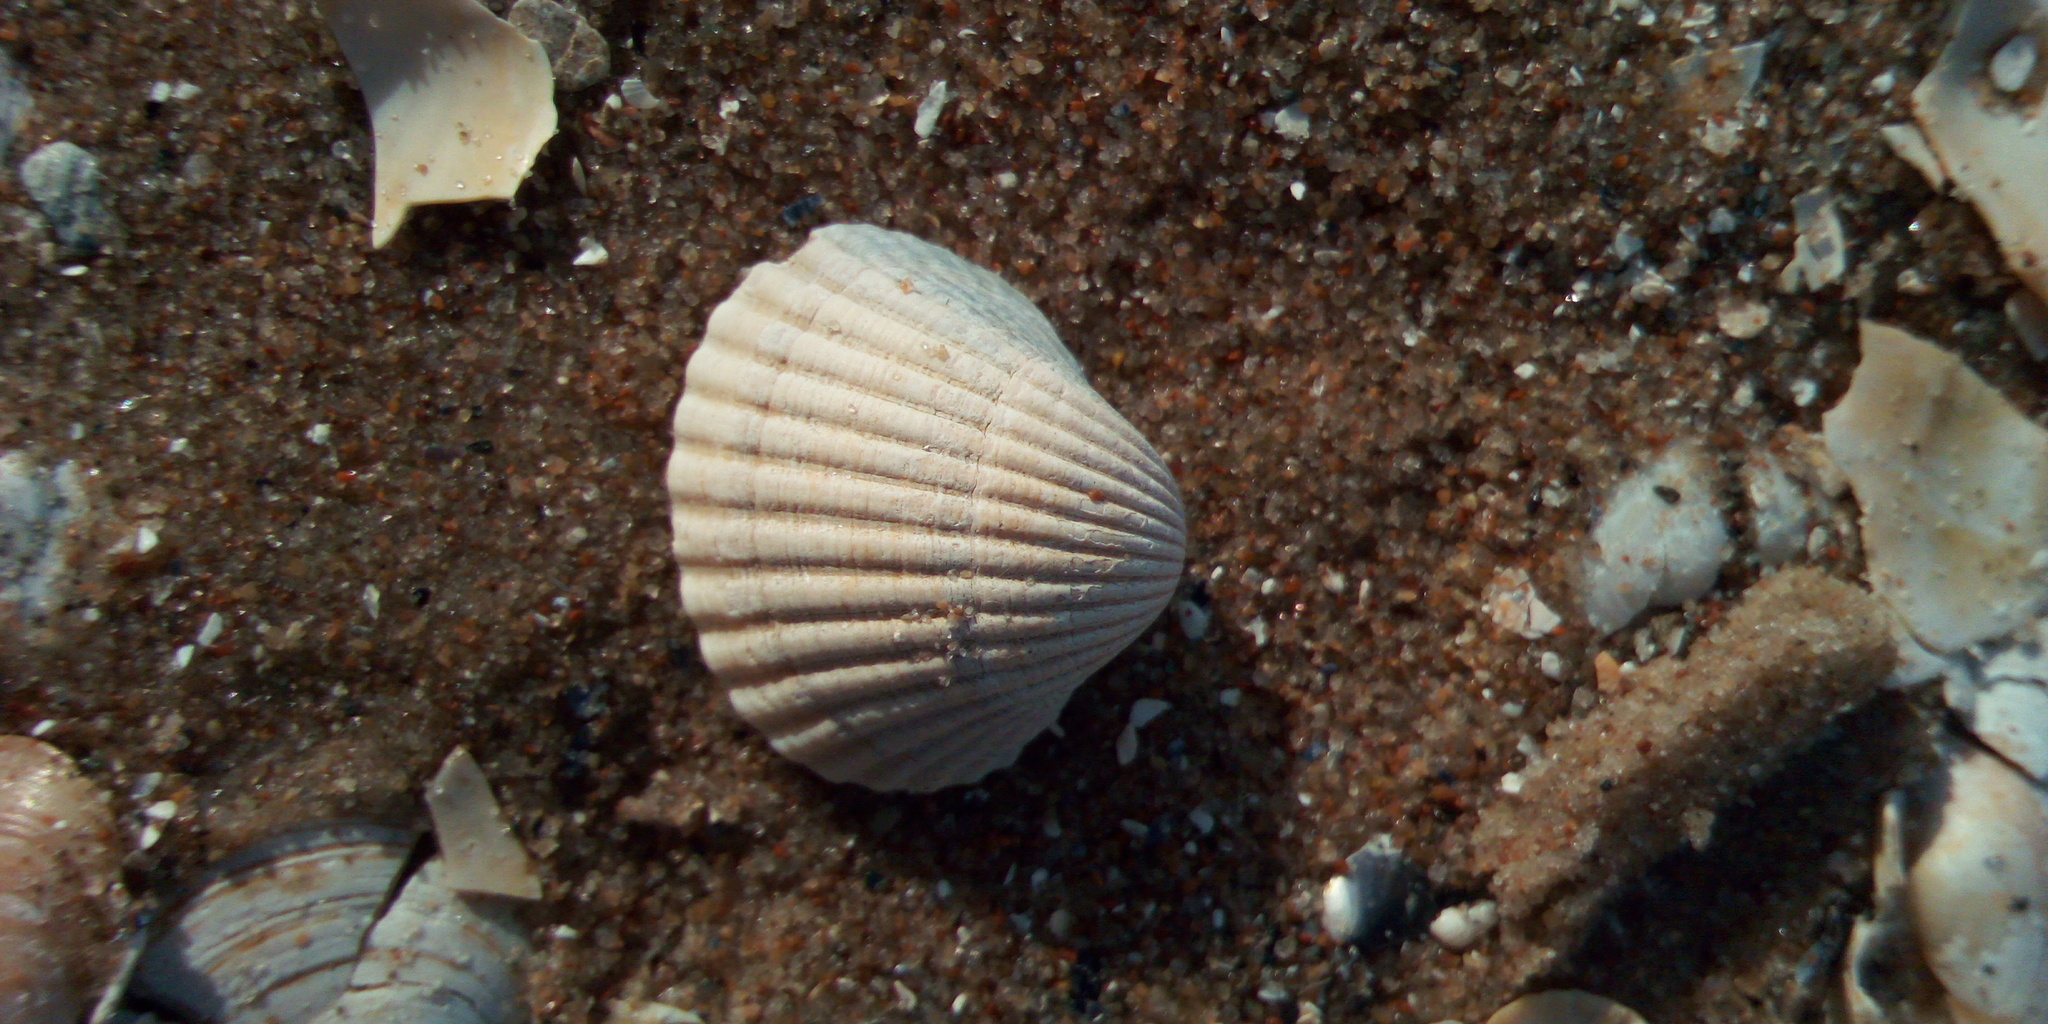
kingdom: Animalia
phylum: Mollusca
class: Bivalvia
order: Cardiida
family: Cardiidae
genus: Cerastoderma
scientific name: Cerastoderma glaucum
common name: Lagoon cockle
